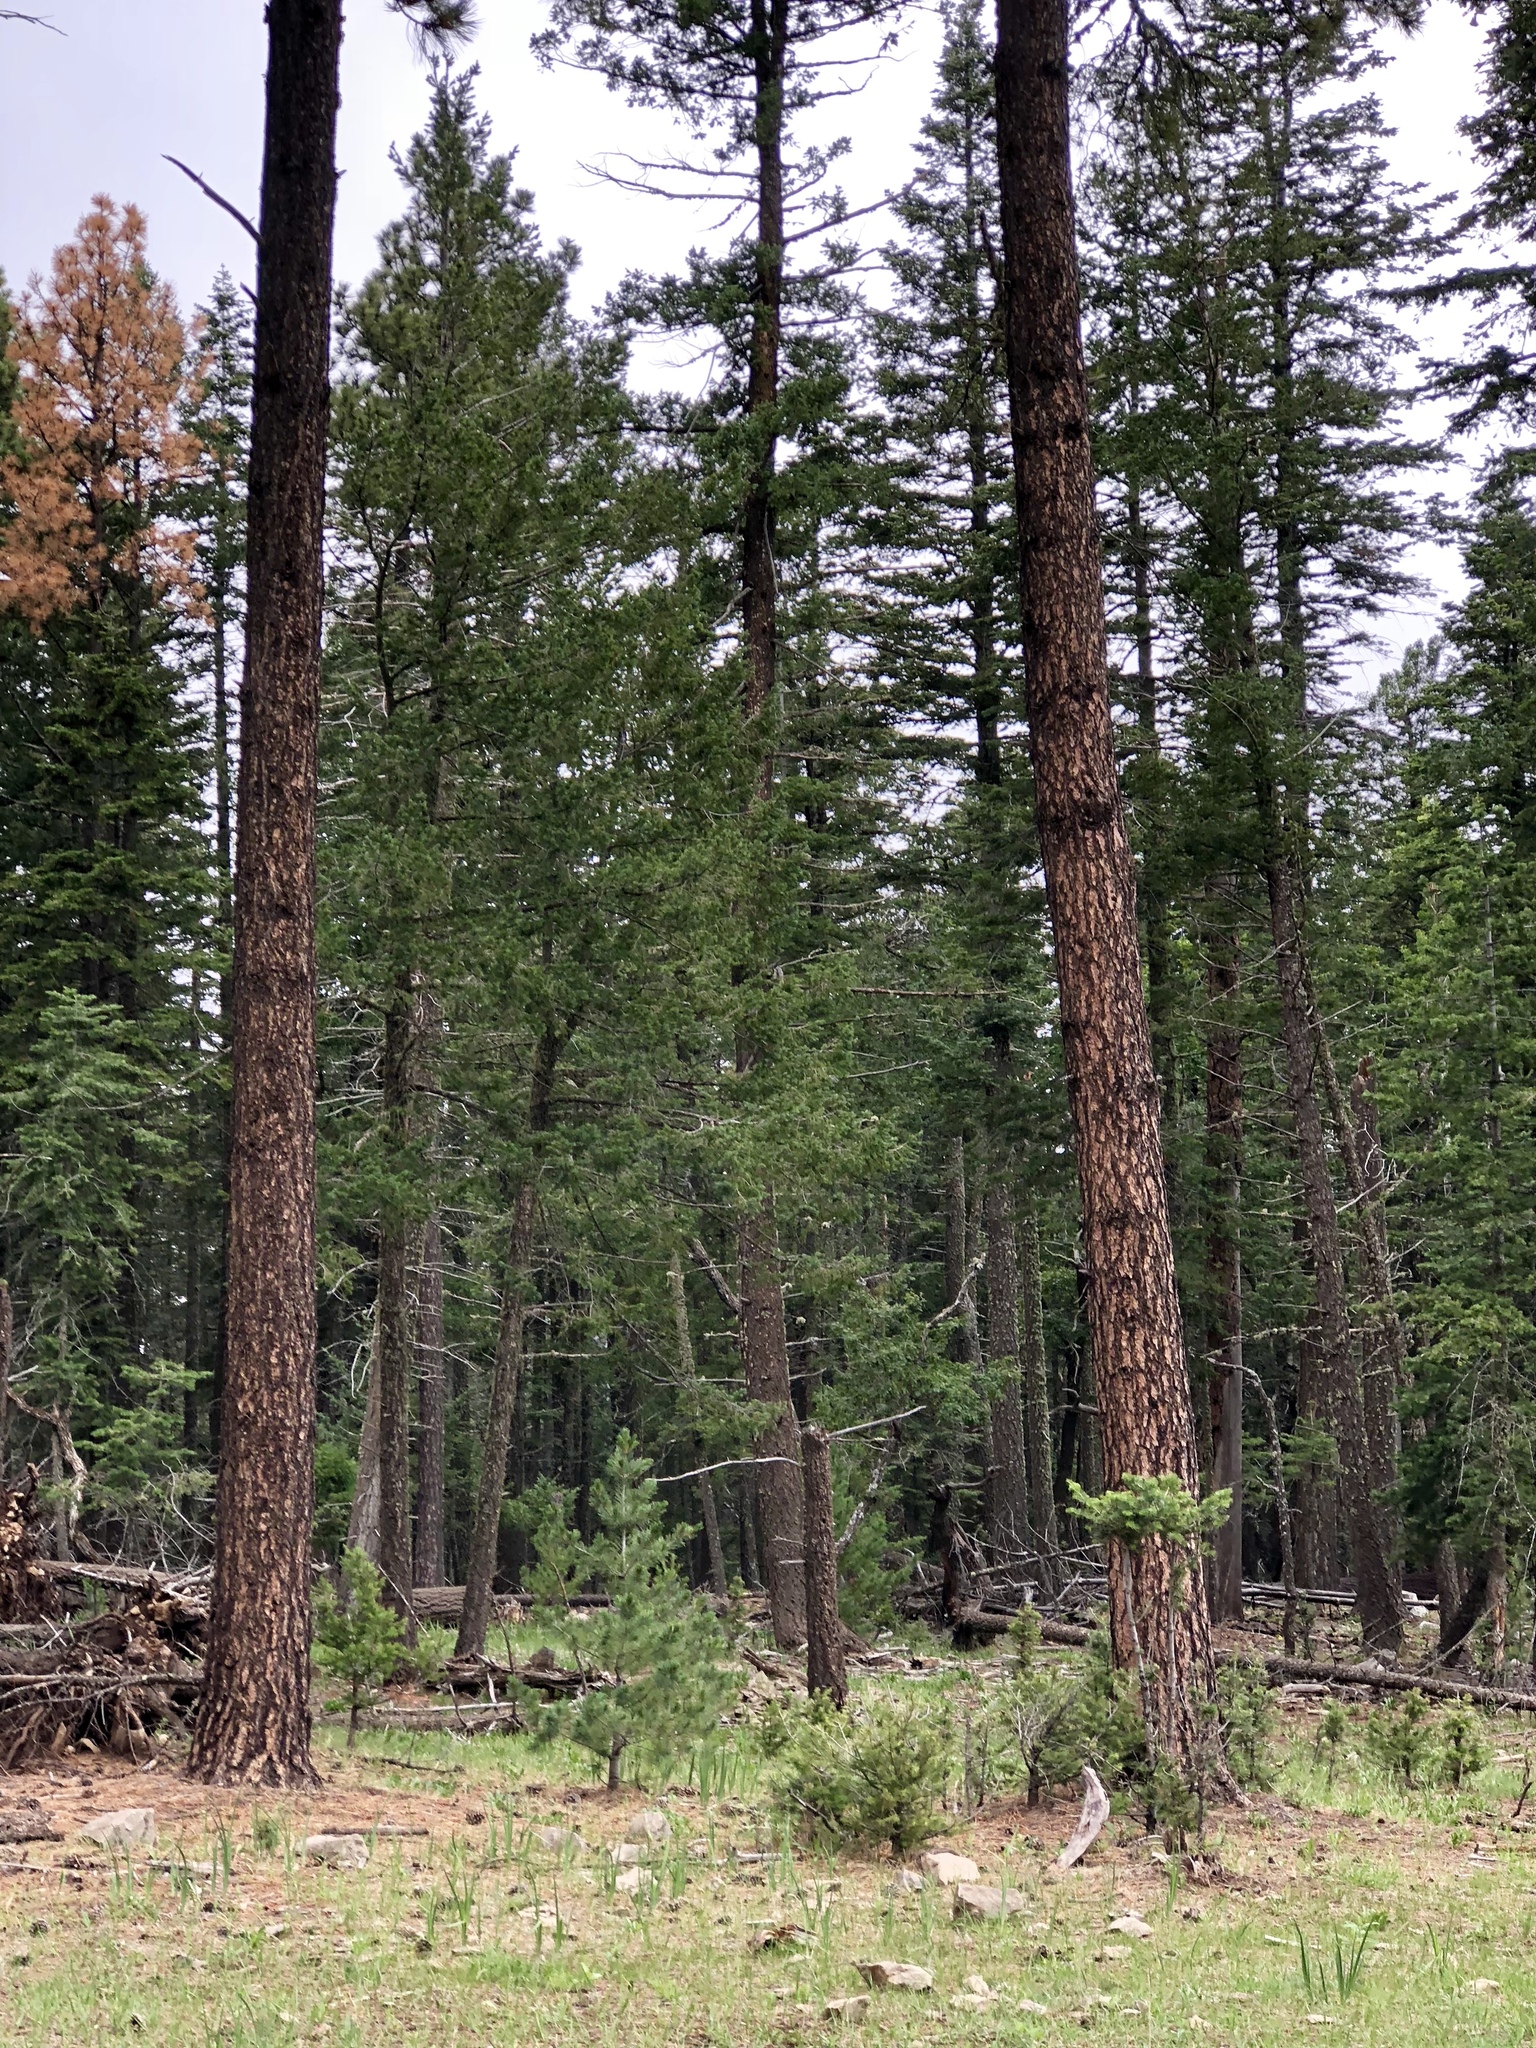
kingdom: Plantae
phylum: Tracheophyta
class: Pinopsida
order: Pinales
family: Pinaceae
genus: Pinus
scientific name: Pinus ponderosa
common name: Western yellow-pine
